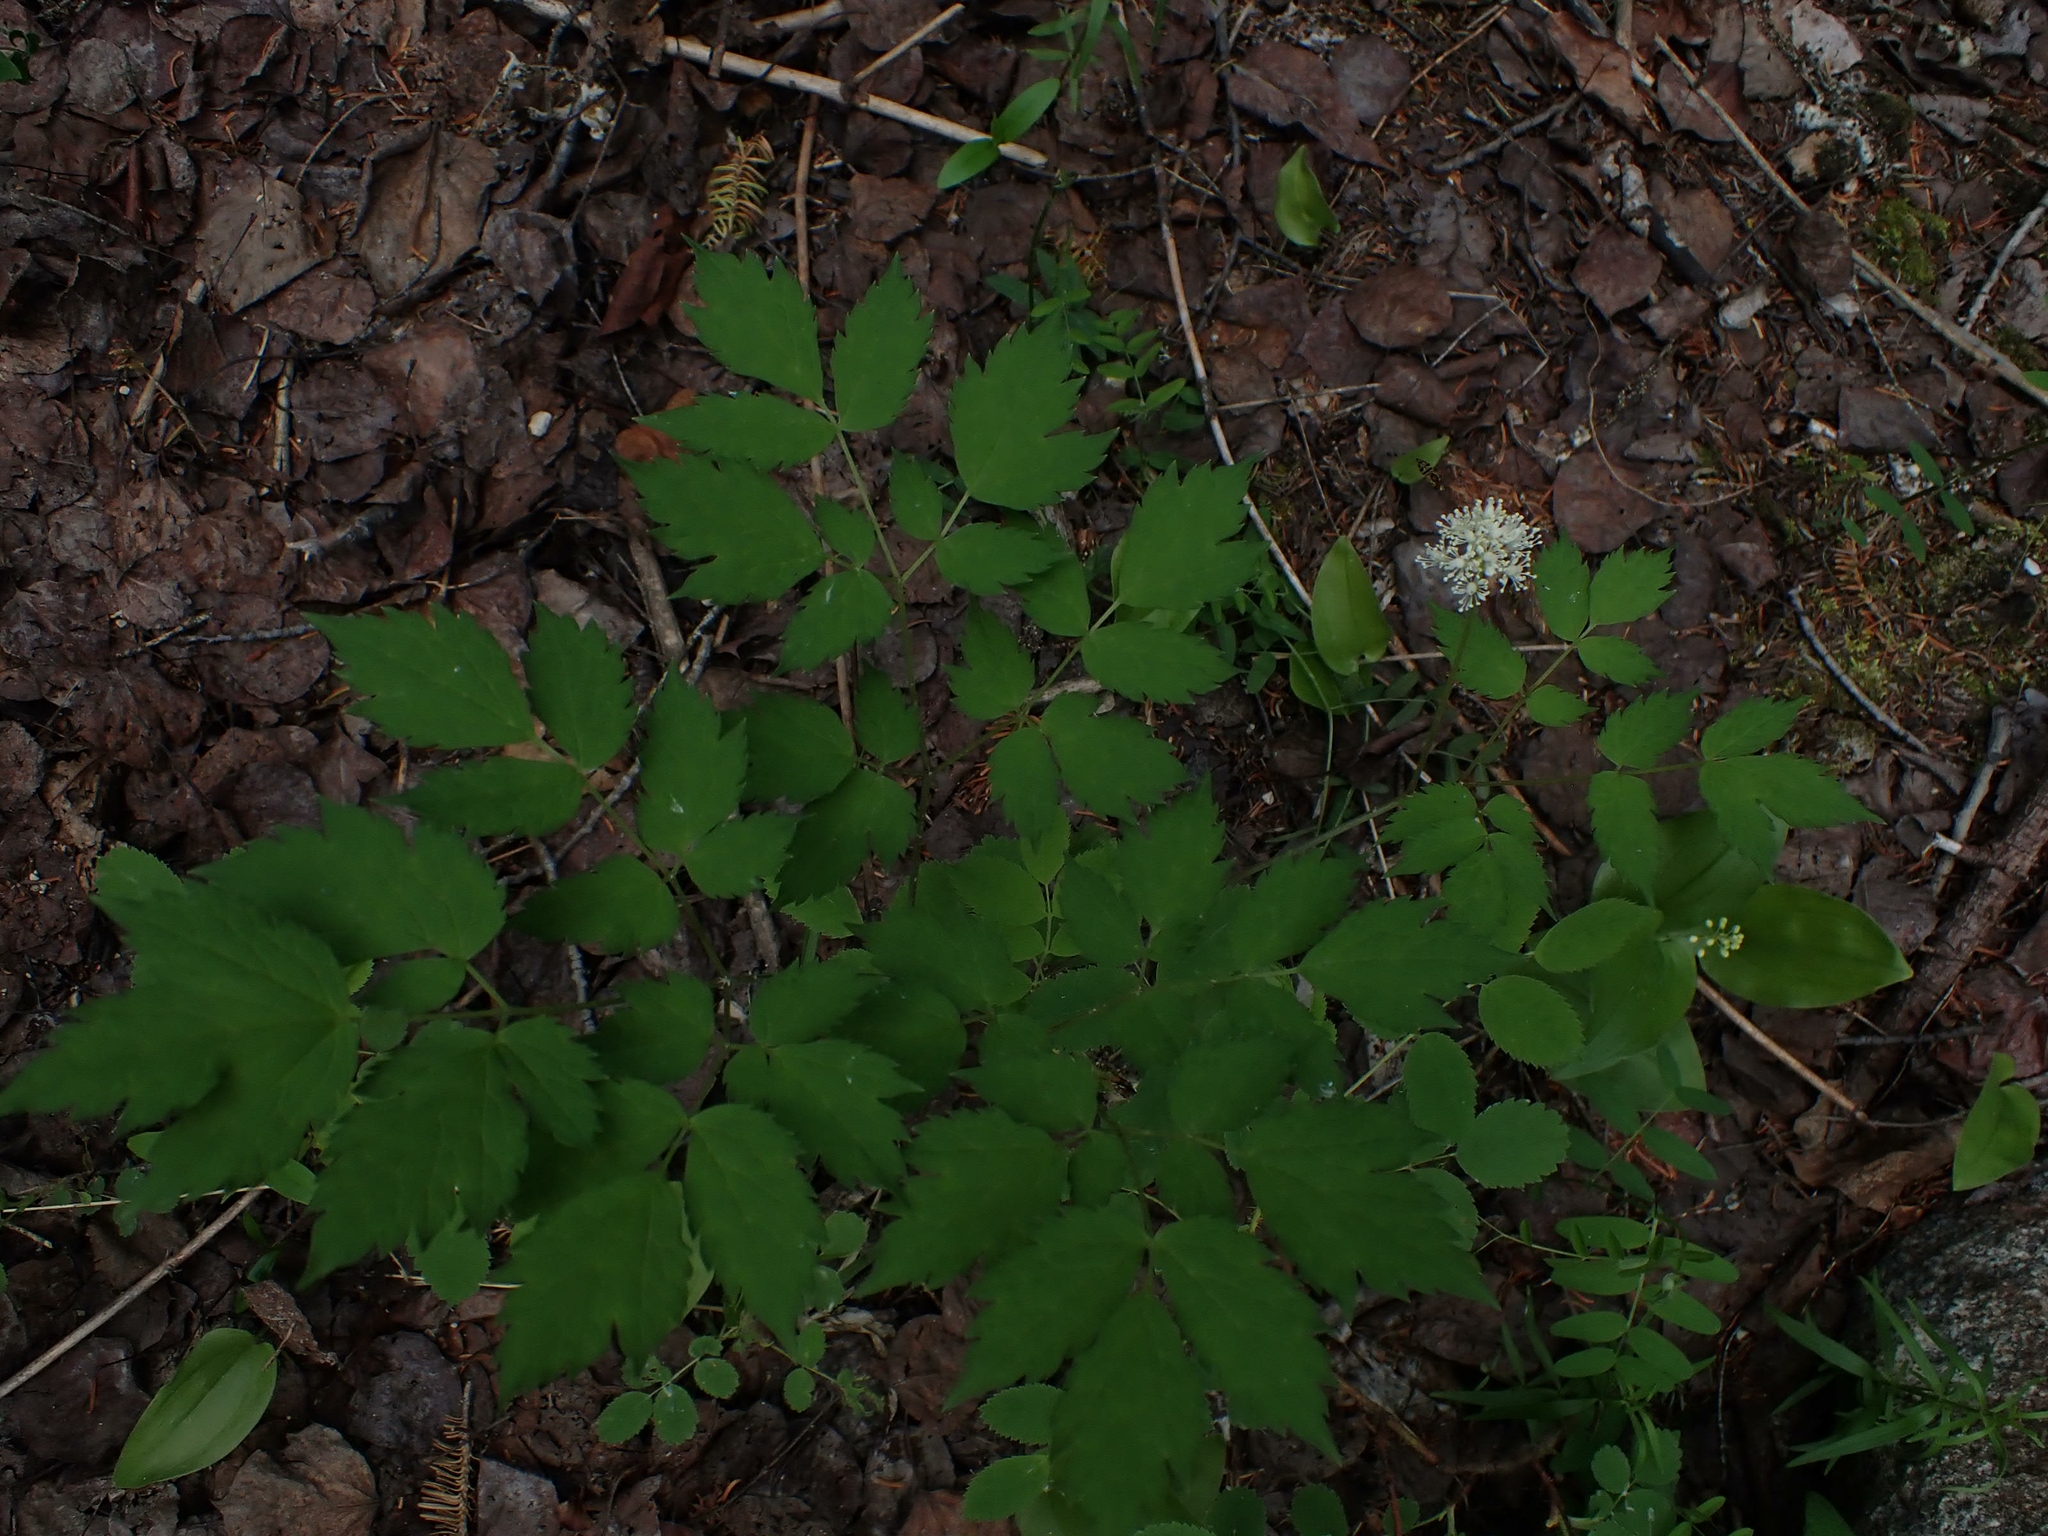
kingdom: Plantae
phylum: Tracheophyta
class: Magnoliopsida
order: Ranunculales
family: Ranunculaceae
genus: Actaea
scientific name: Actaea rubra
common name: Red baneberry
